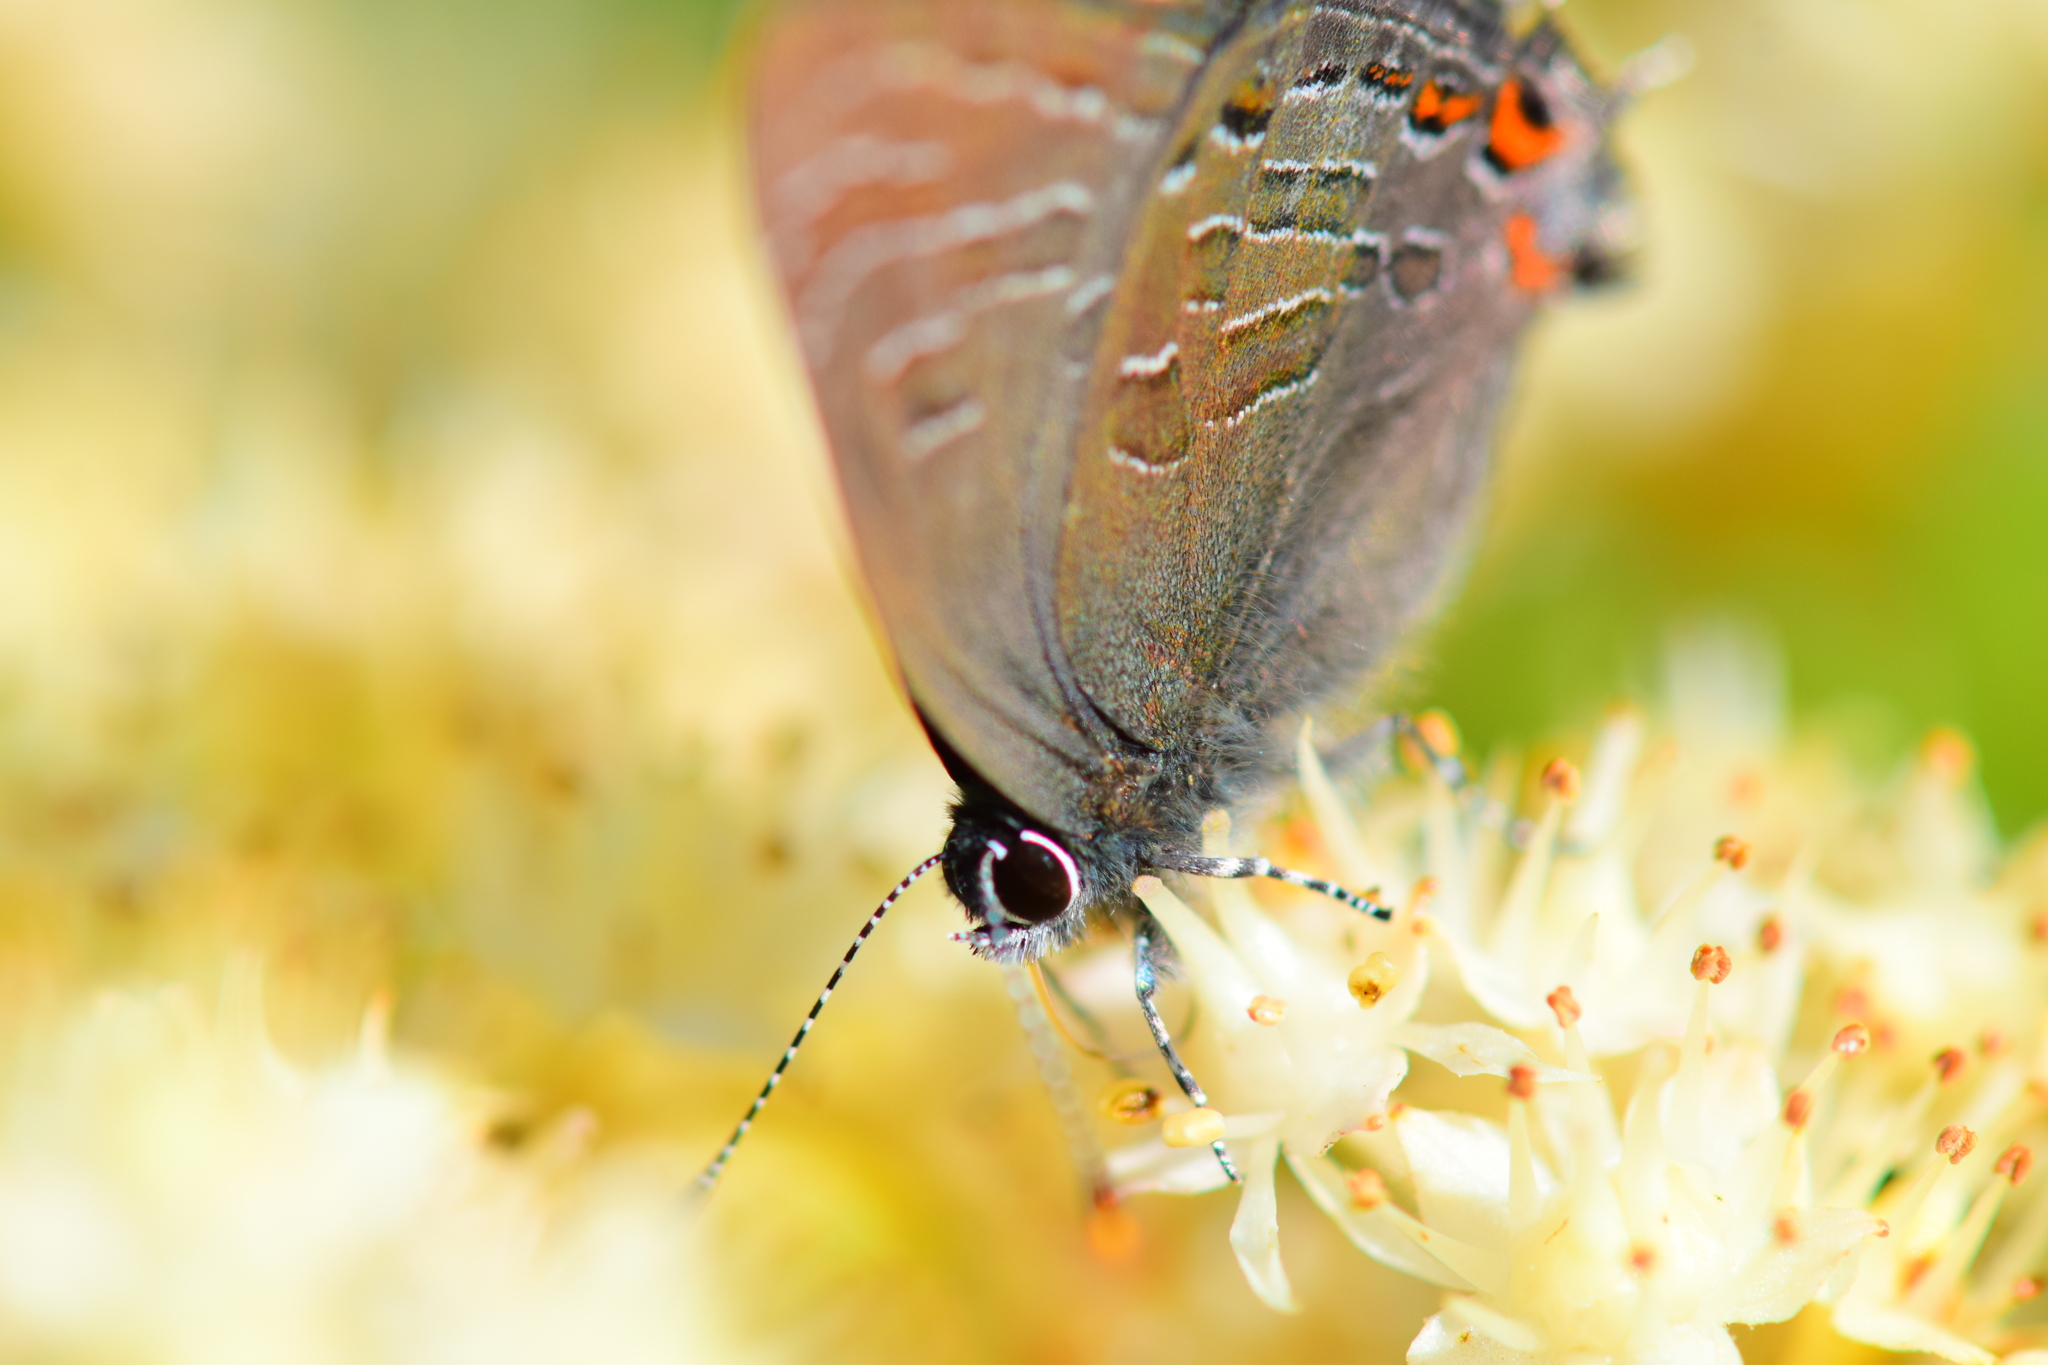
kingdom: Animalia
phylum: Arthropoda
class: Insecta
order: Lepidoptera
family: Lycaenidae
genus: Satyrium
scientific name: Satyrium liparops
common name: Striped hairstreak
